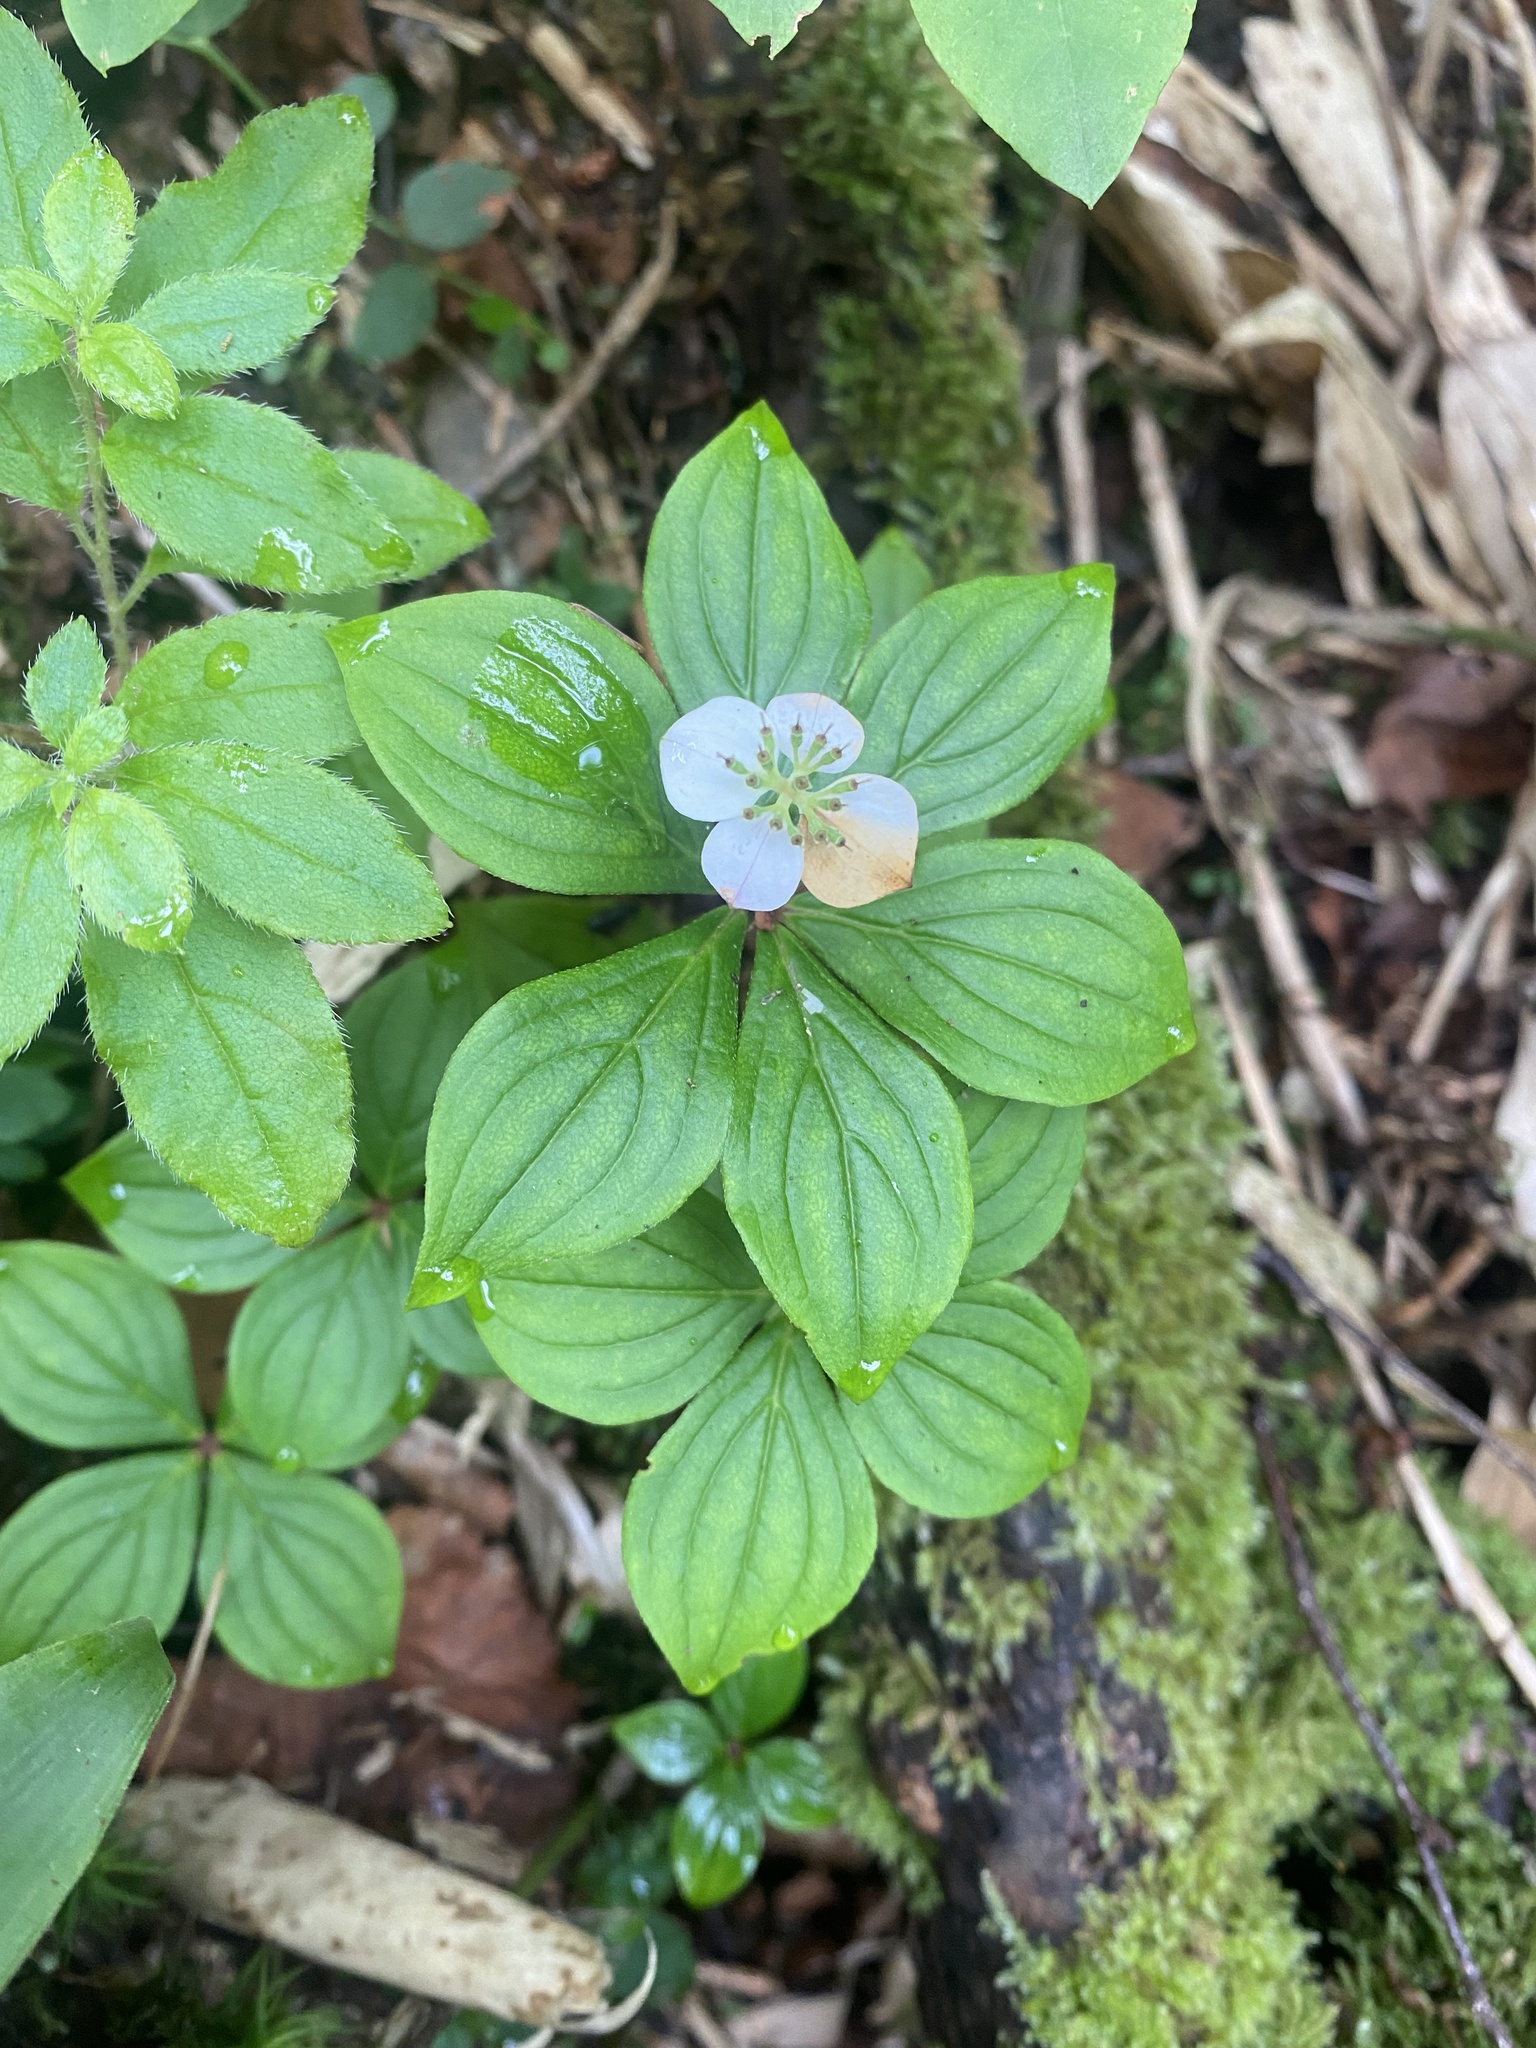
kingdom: Plantae
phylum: Tracheophyta
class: Magnoliopsida
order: Cornales
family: Cornaceae
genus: Cornus
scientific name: Cornus canadensis
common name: Creeping dogwood
